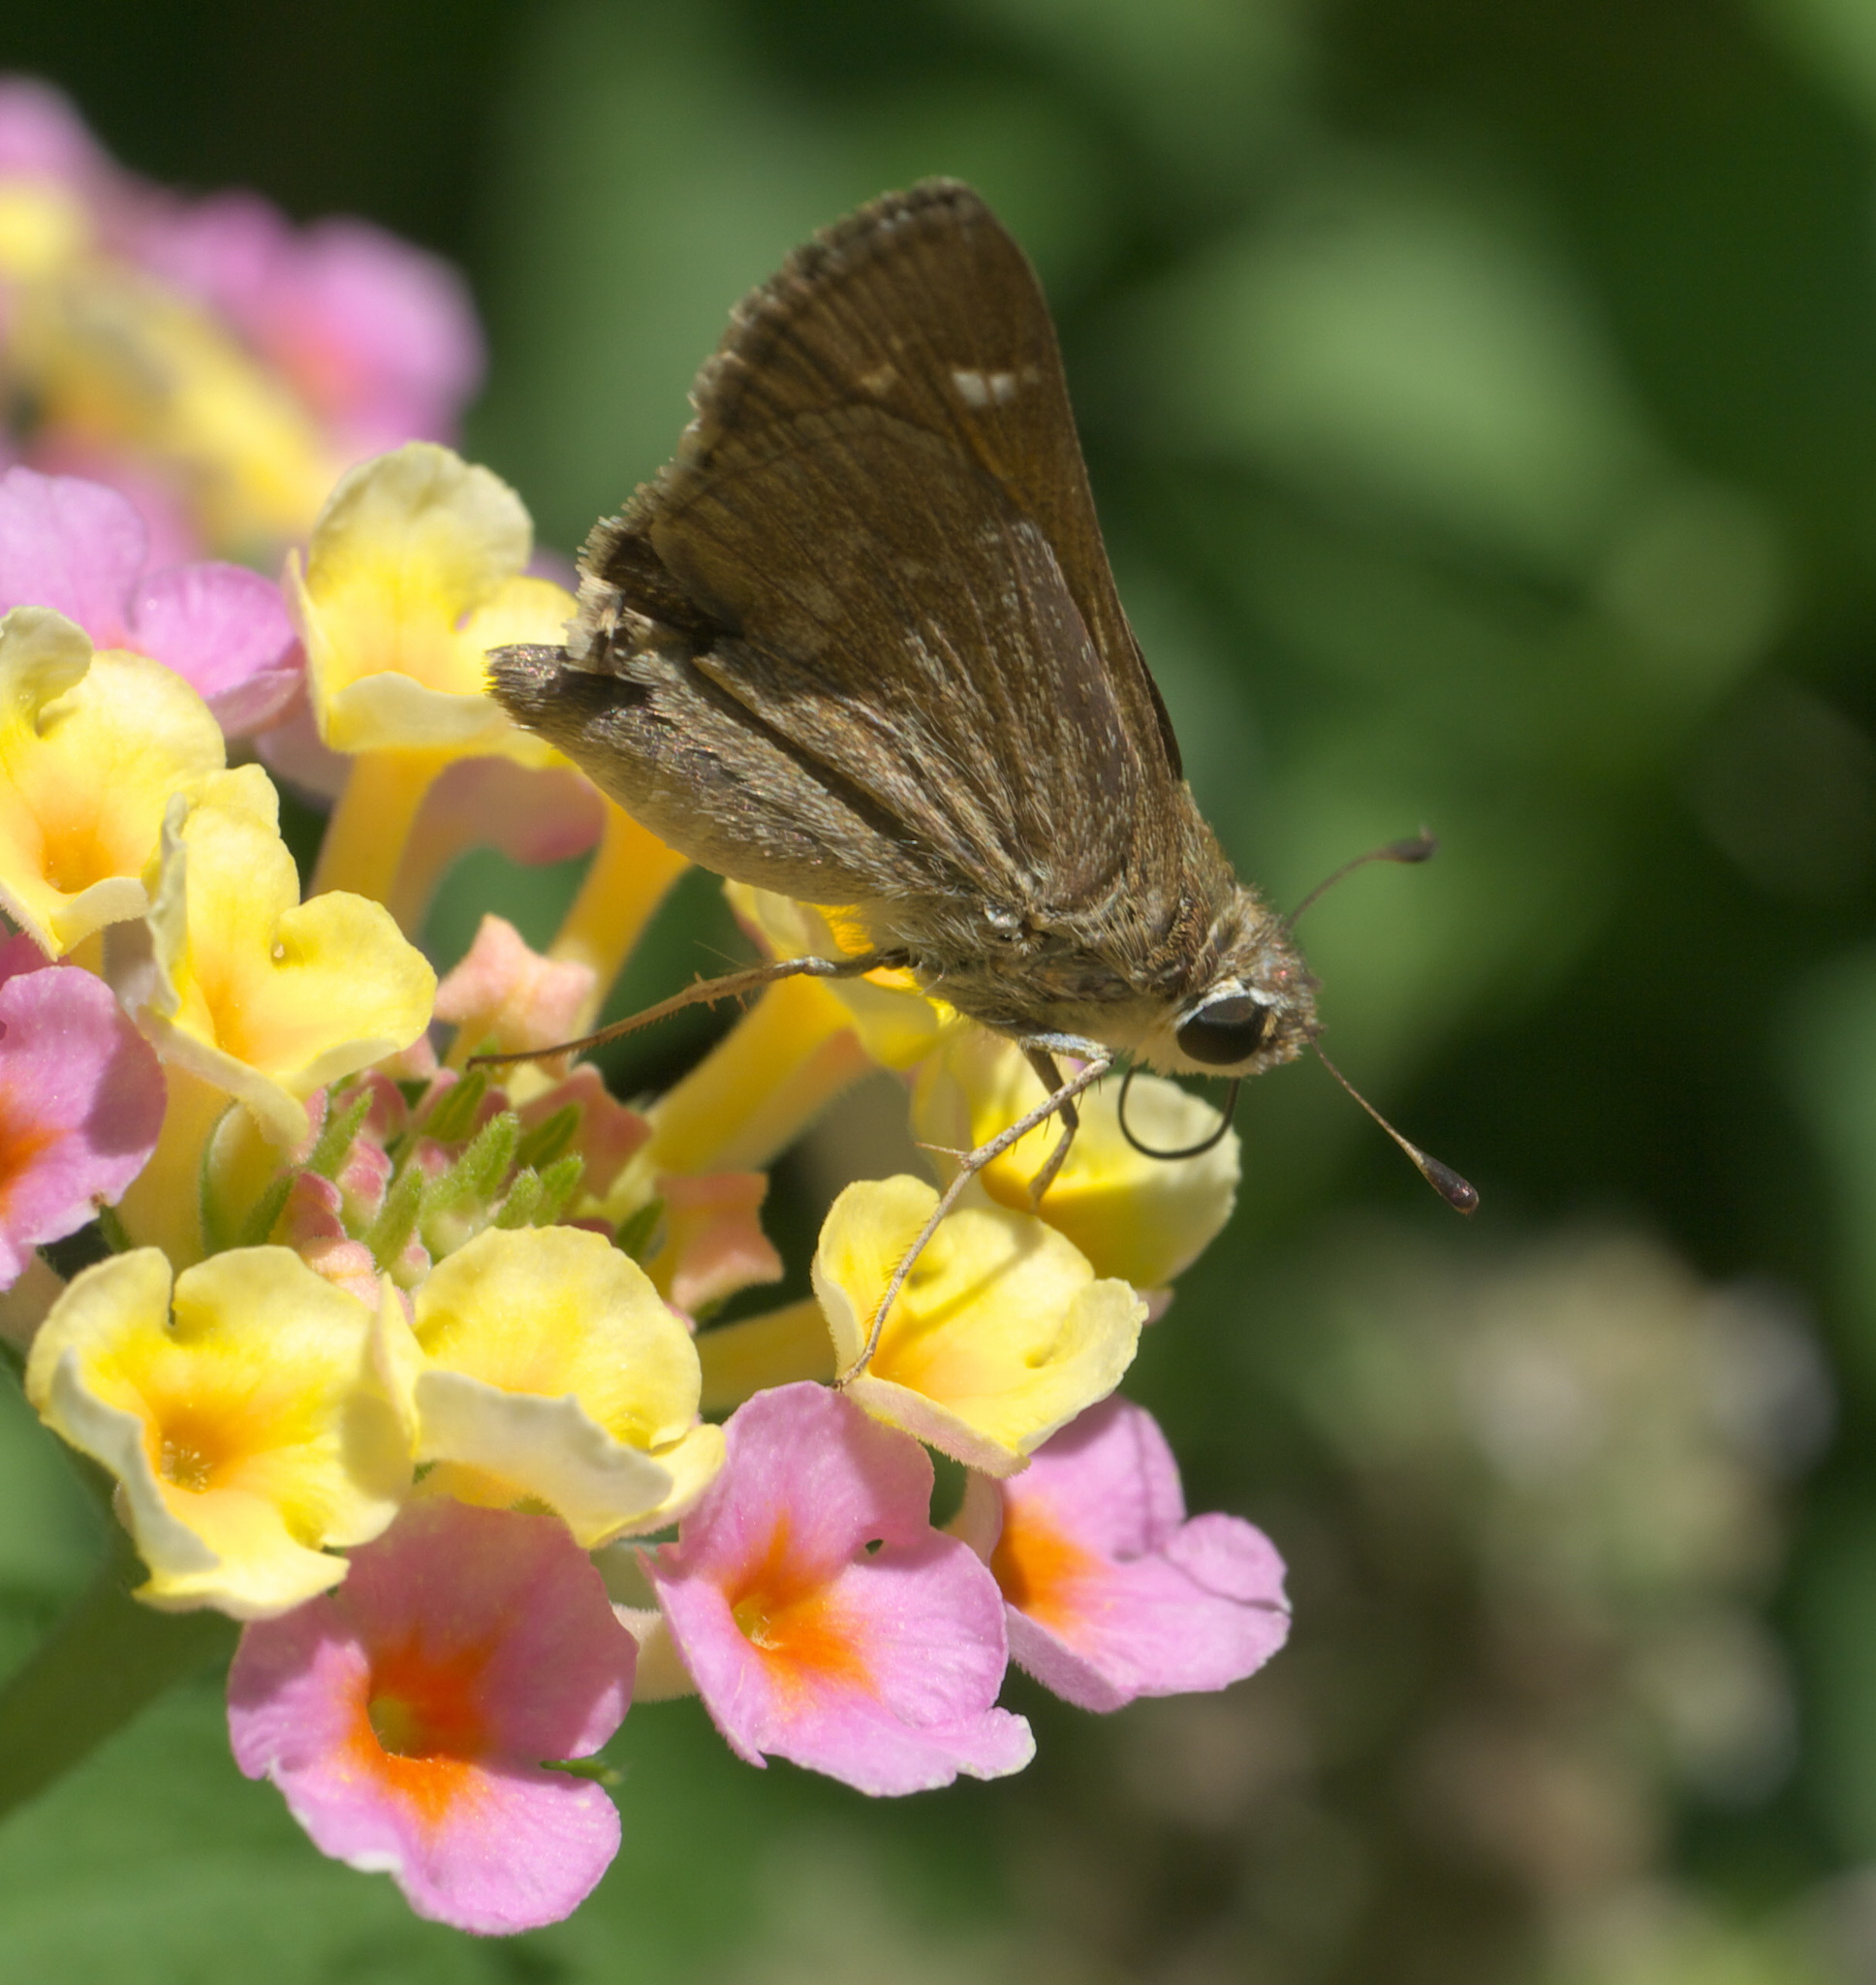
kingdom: Animalia
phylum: Arthropoda
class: Insecta
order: Lepidoptera
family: Hesperiidae
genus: Atalopedes
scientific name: Atalopedes
